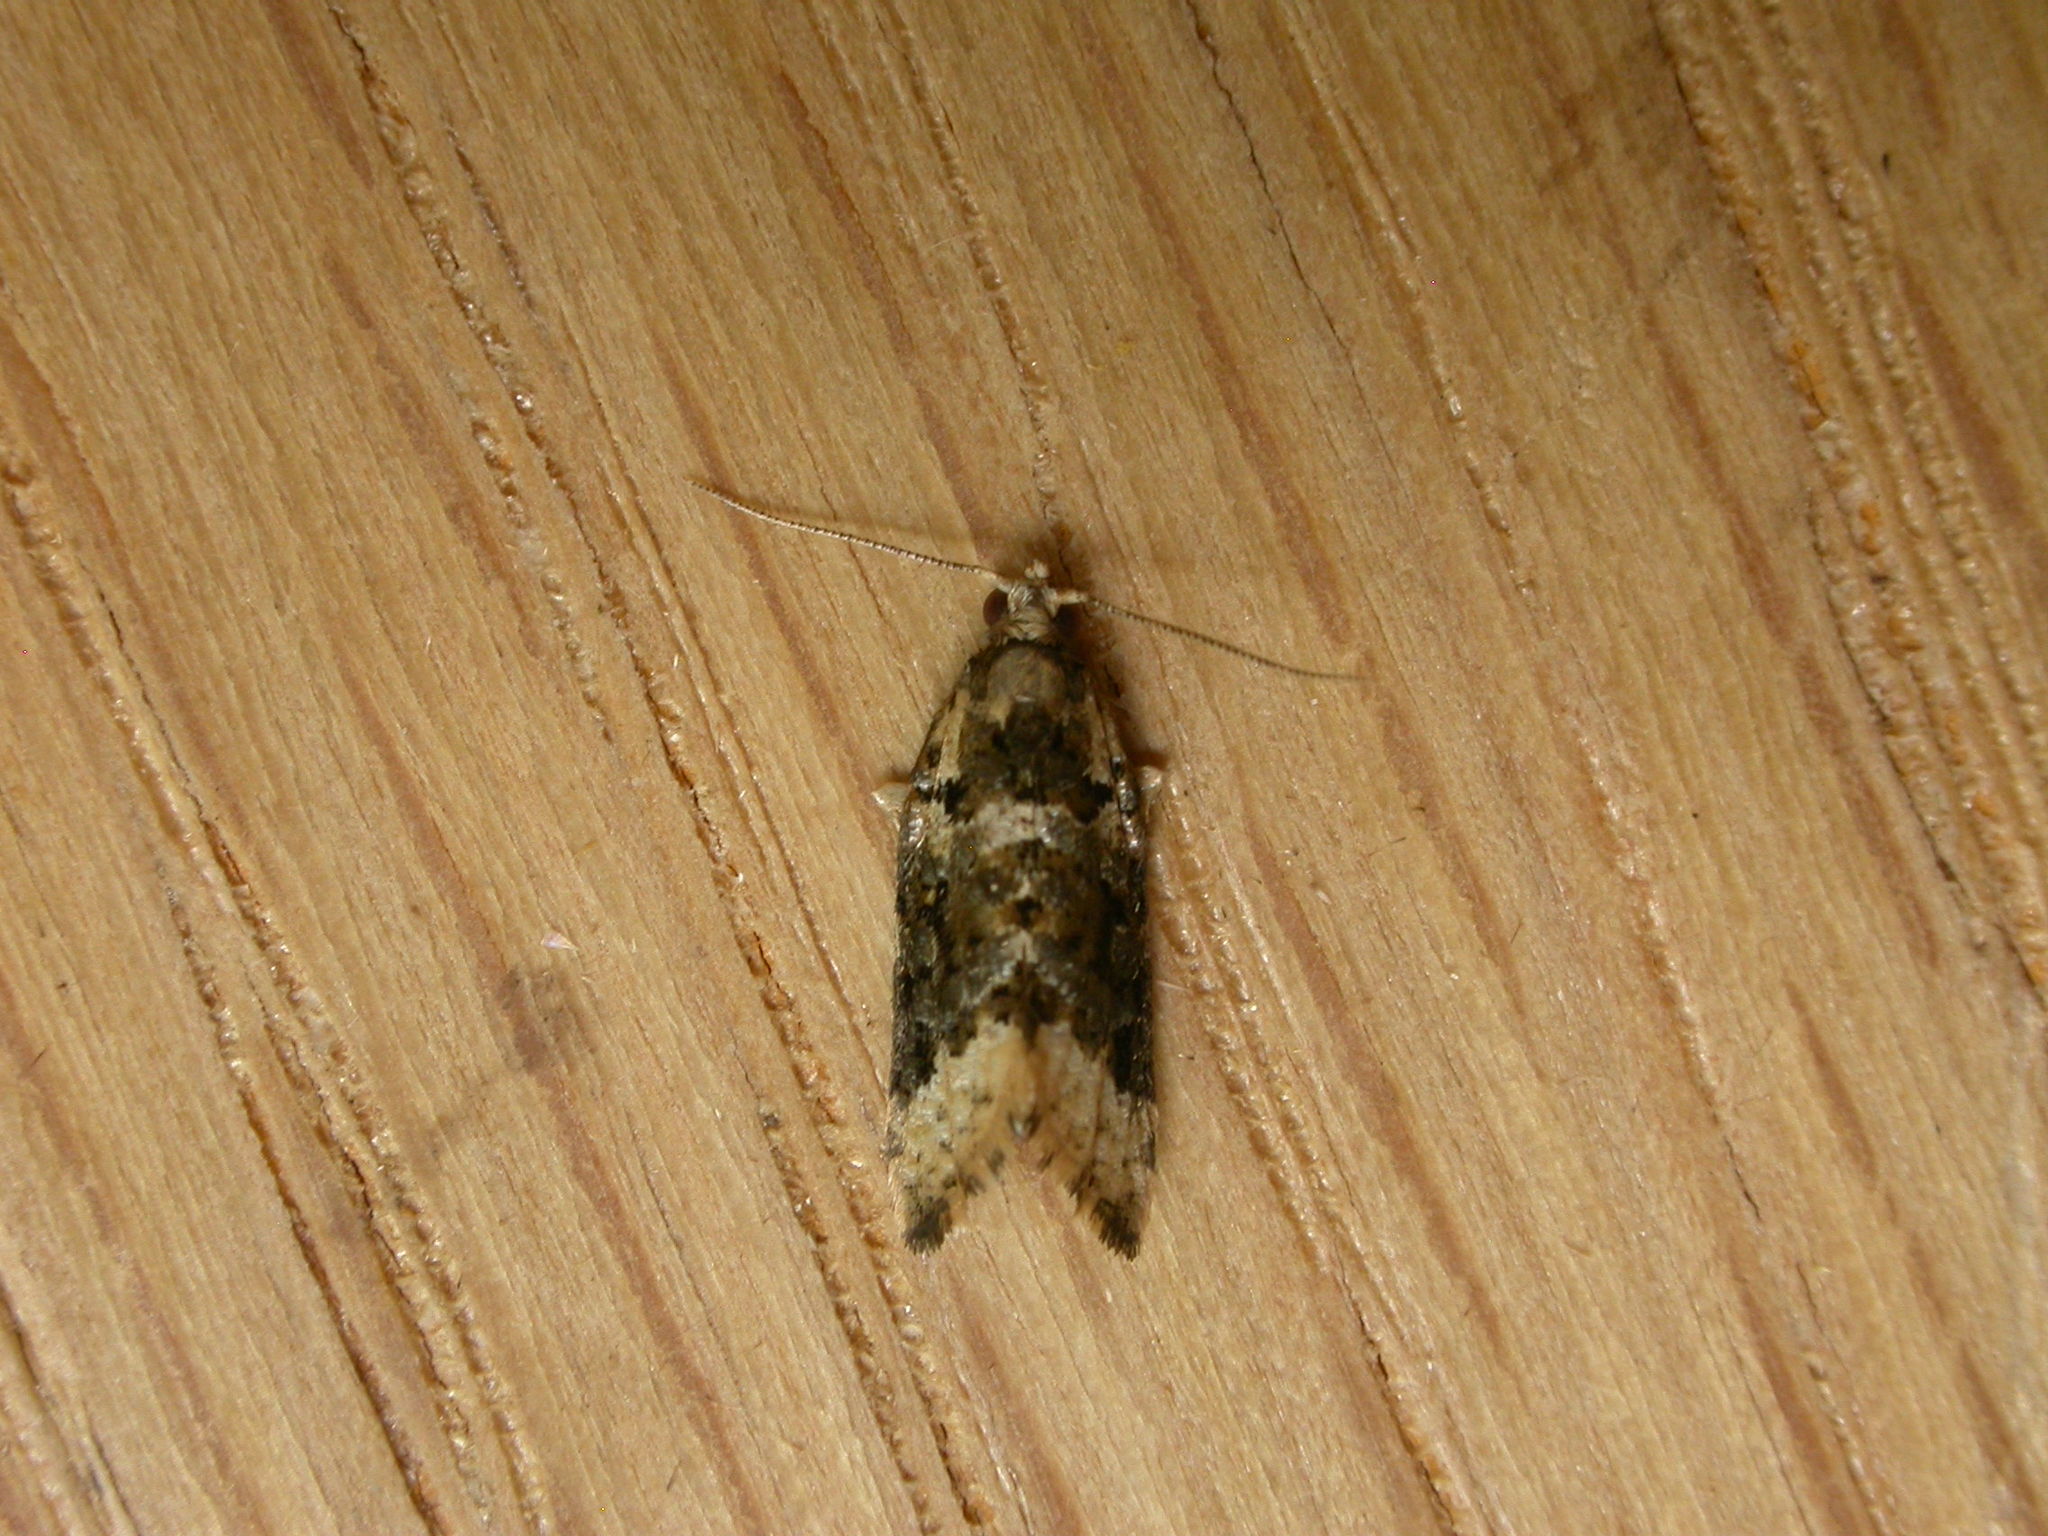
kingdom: Animalia
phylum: Arthropoda
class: Insecta
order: Lepidoptera
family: Tortricidae
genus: Aeolostoma
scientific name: Aeolostoma scutiferana
